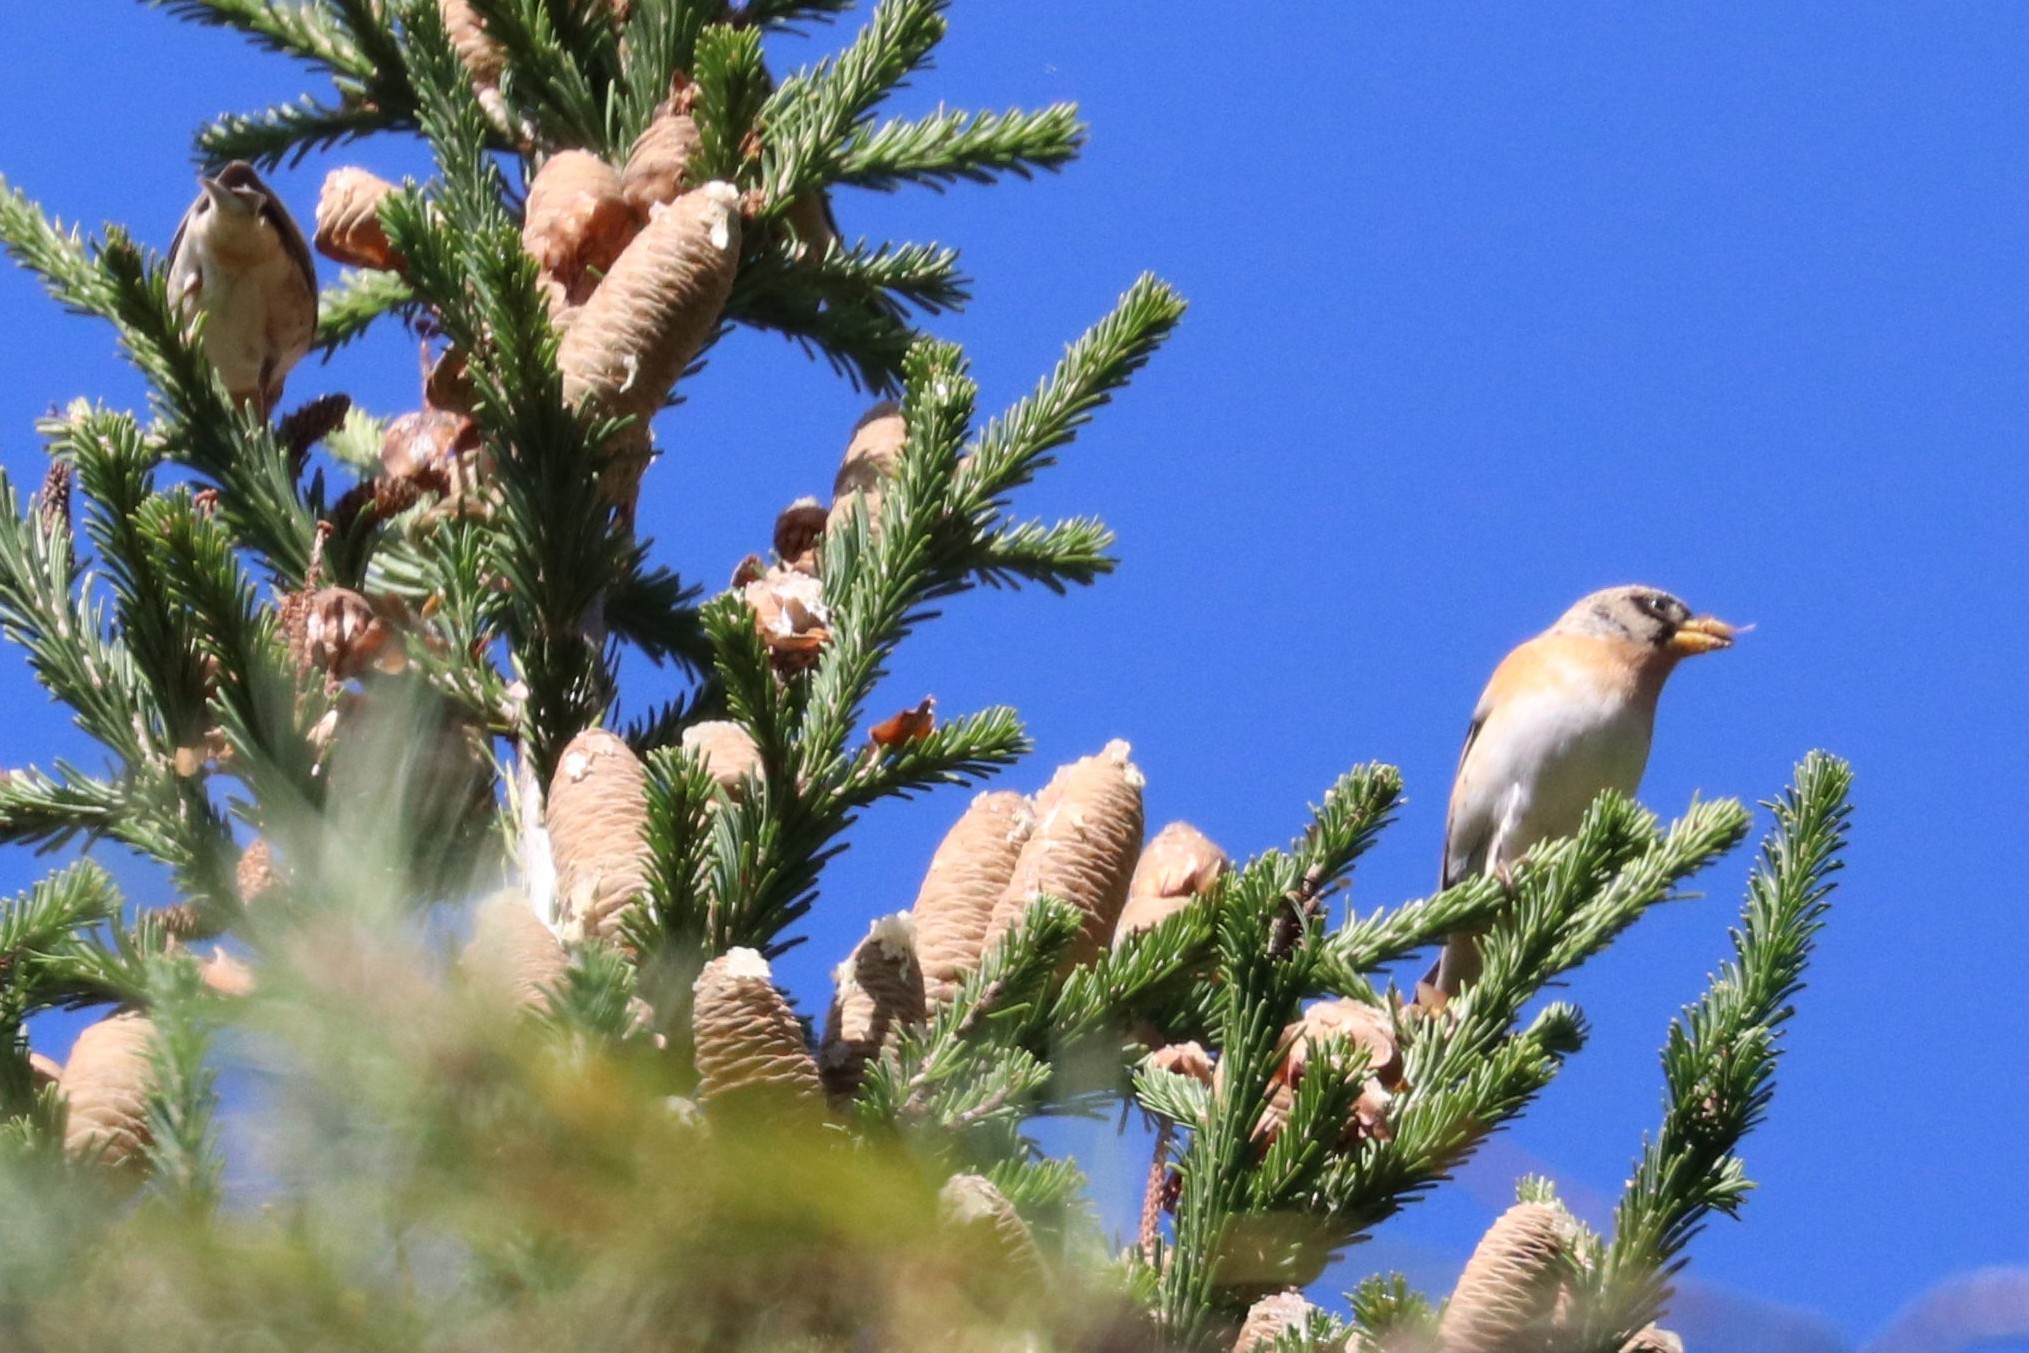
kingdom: Animalia
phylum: Chordata
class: Aves
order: Passeriformes
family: Fringillidae
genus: Fringilla
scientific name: Fringilla montifringilla
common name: Brambling
